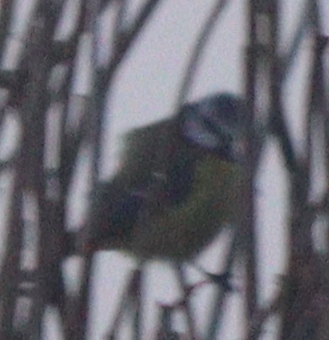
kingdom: Animalia
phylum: Chordata
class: Aves
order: Passeriformes
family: Paridae
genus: Cyanistes
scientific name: Cyanistes caeruleus
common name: Eurasian blue tit
